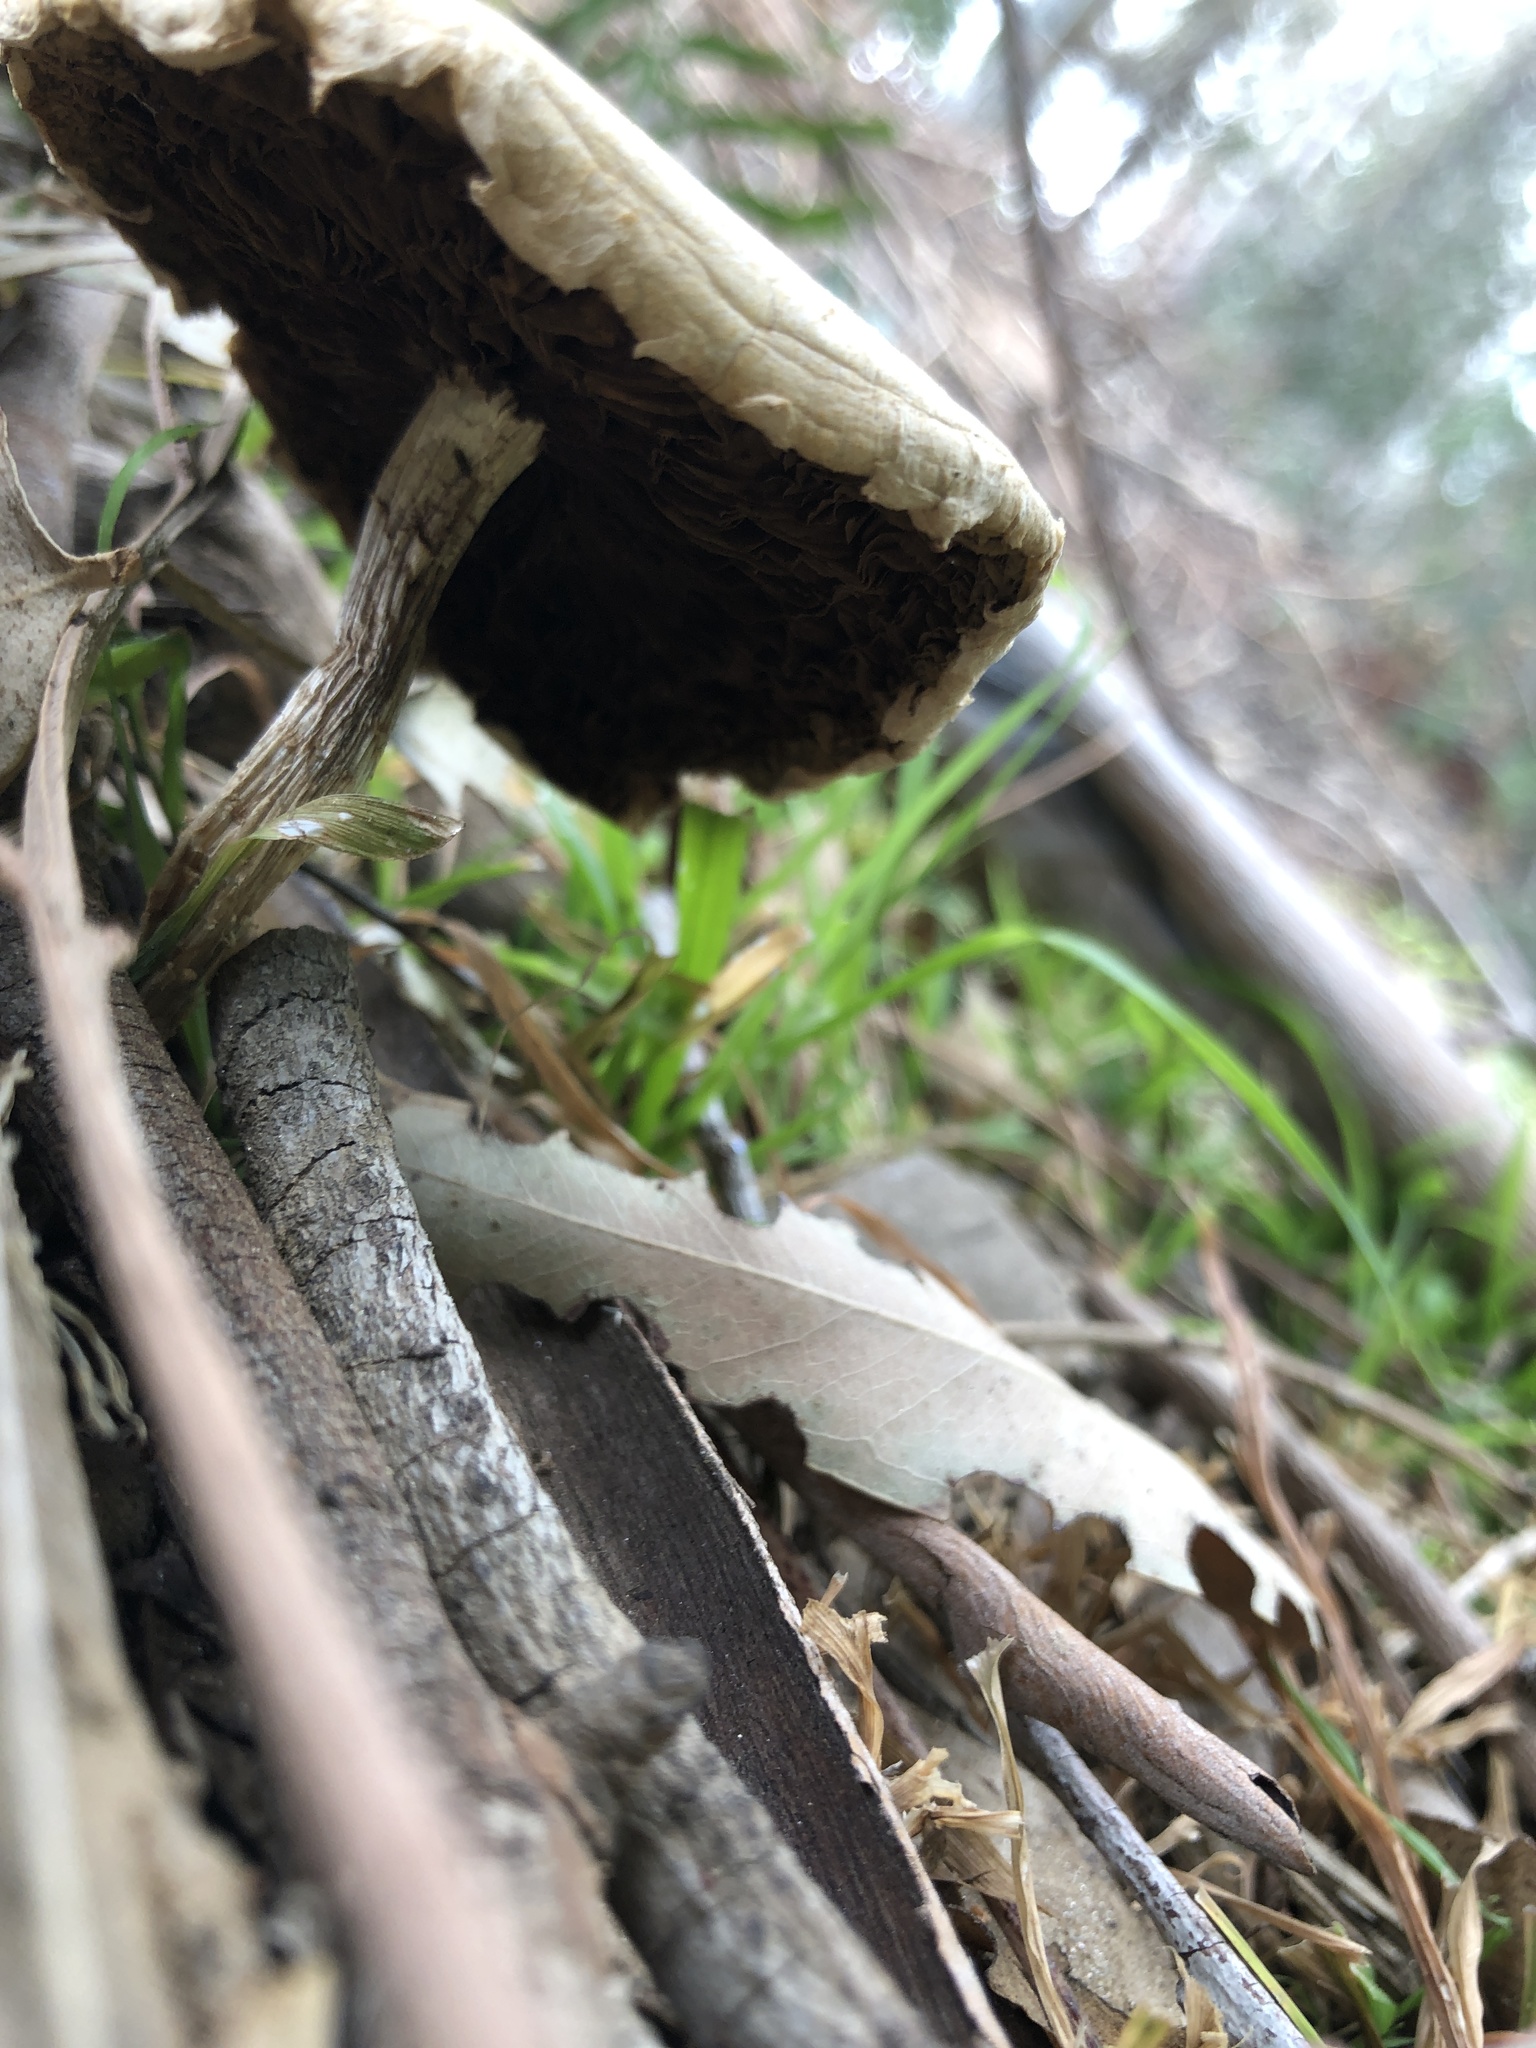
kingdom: Fungi
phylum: Basidiomycota
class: Agaricomycetes
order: Agaricales
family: Strophariaceae
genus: Leratiomyces
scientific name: Leratiomyces percevalii
